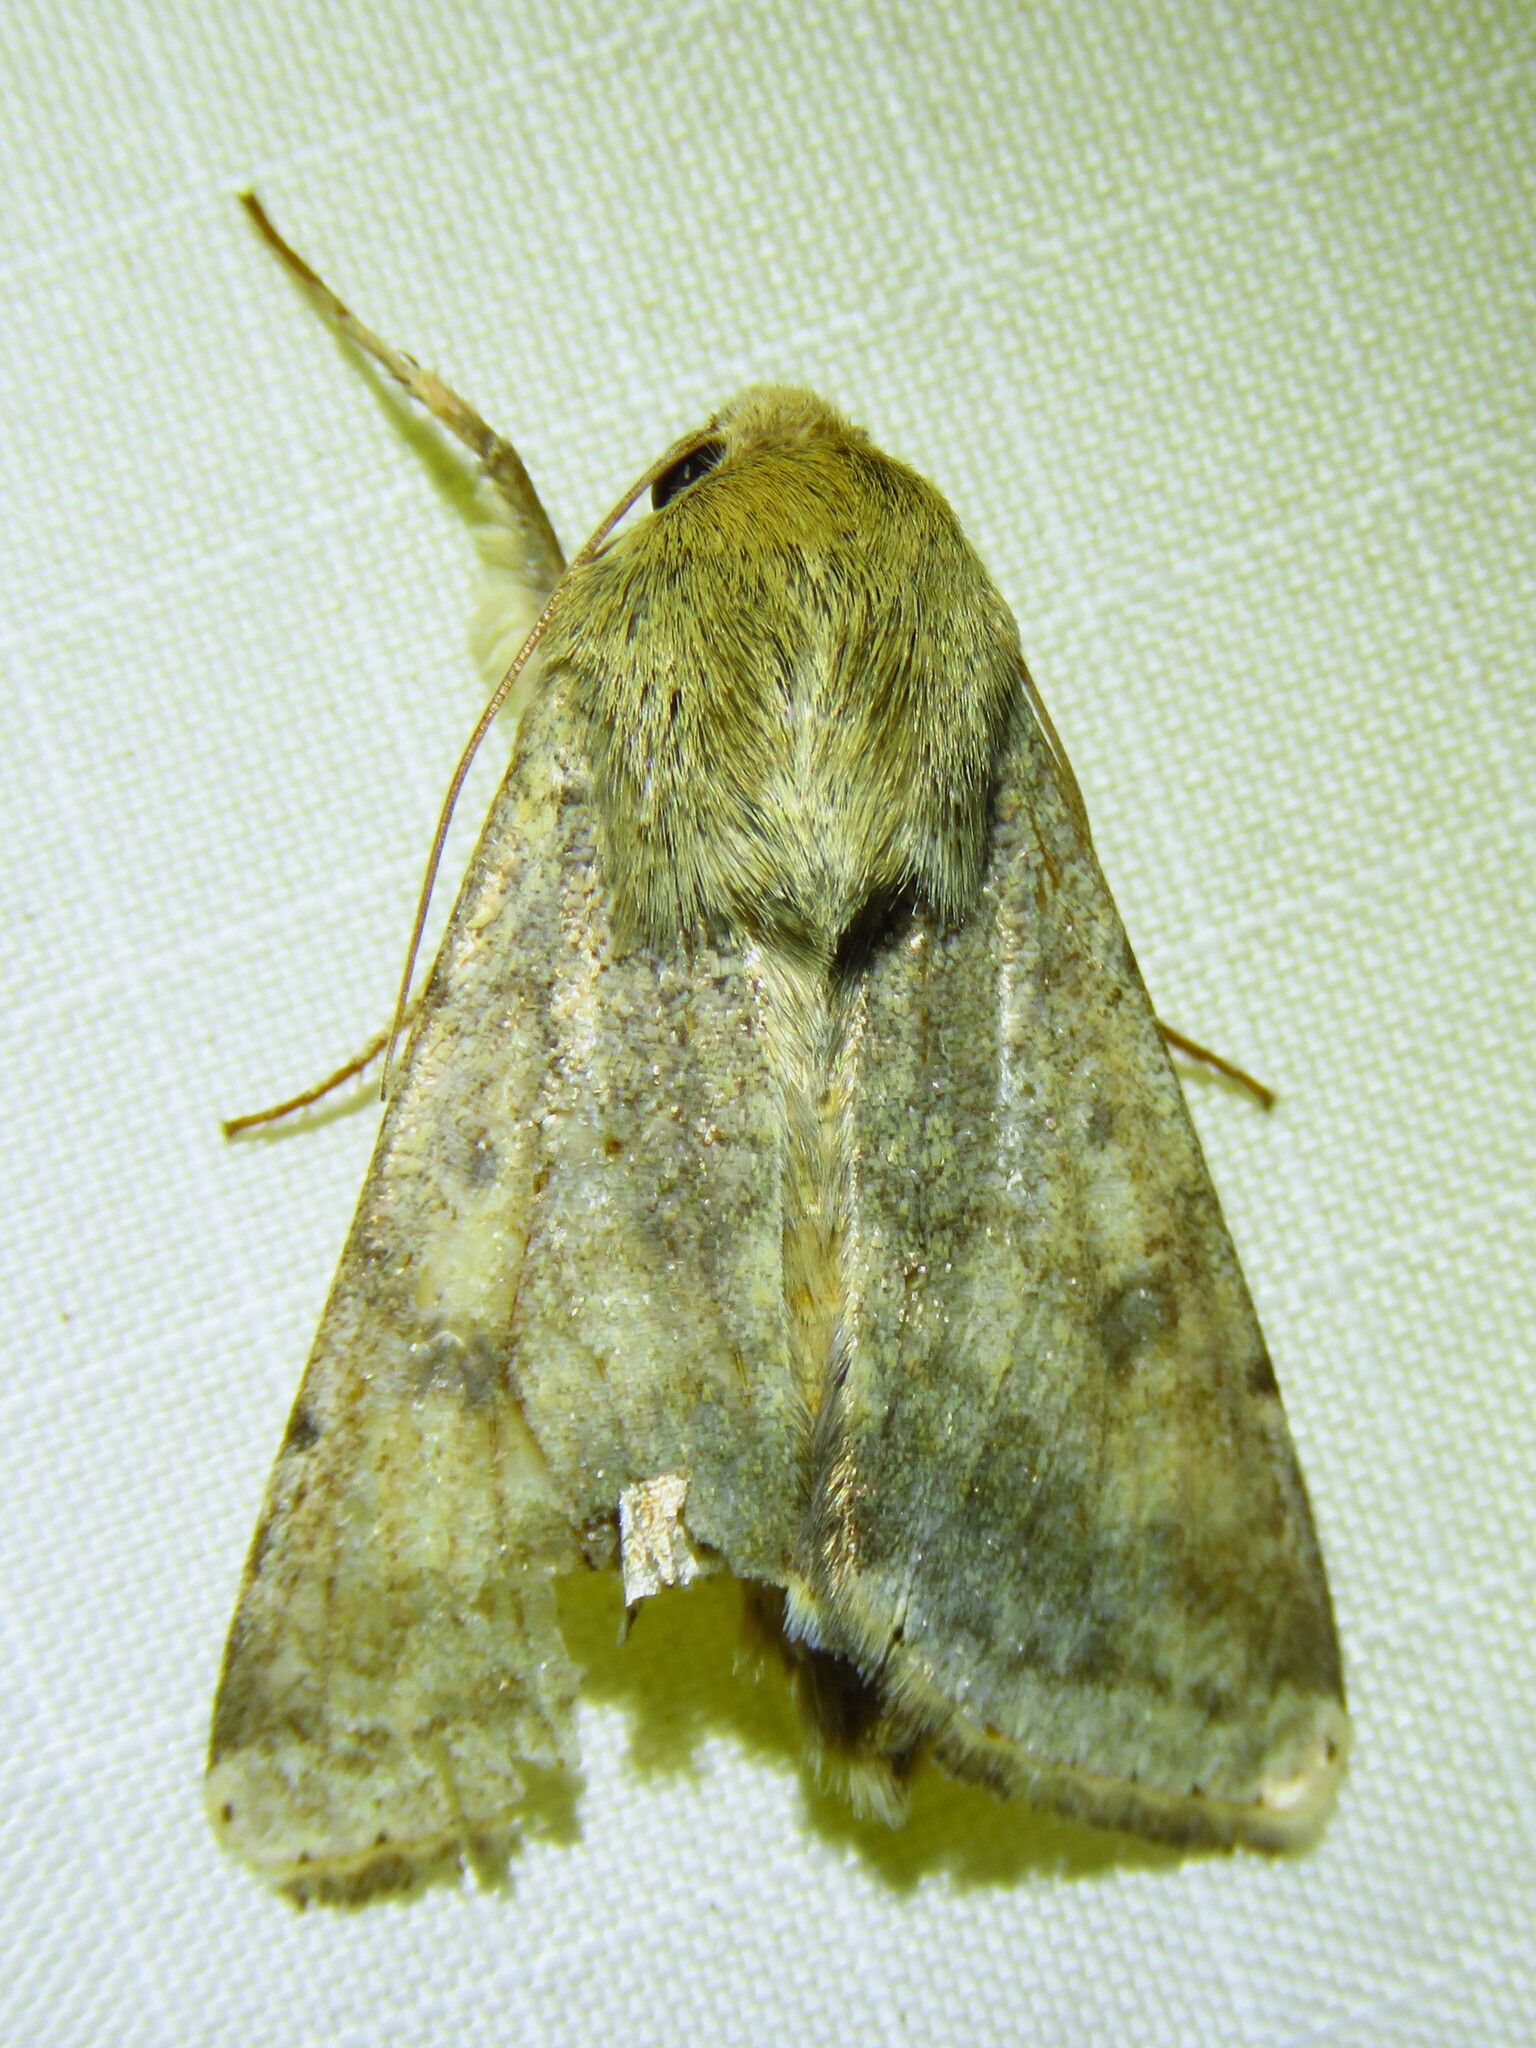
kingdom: Animalia
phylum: Arthropoda
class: Insecta
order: Lepidoptera
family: Noctuidae
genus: Helicoverpa
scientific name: Helicoverpa zea
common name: Bollworm
